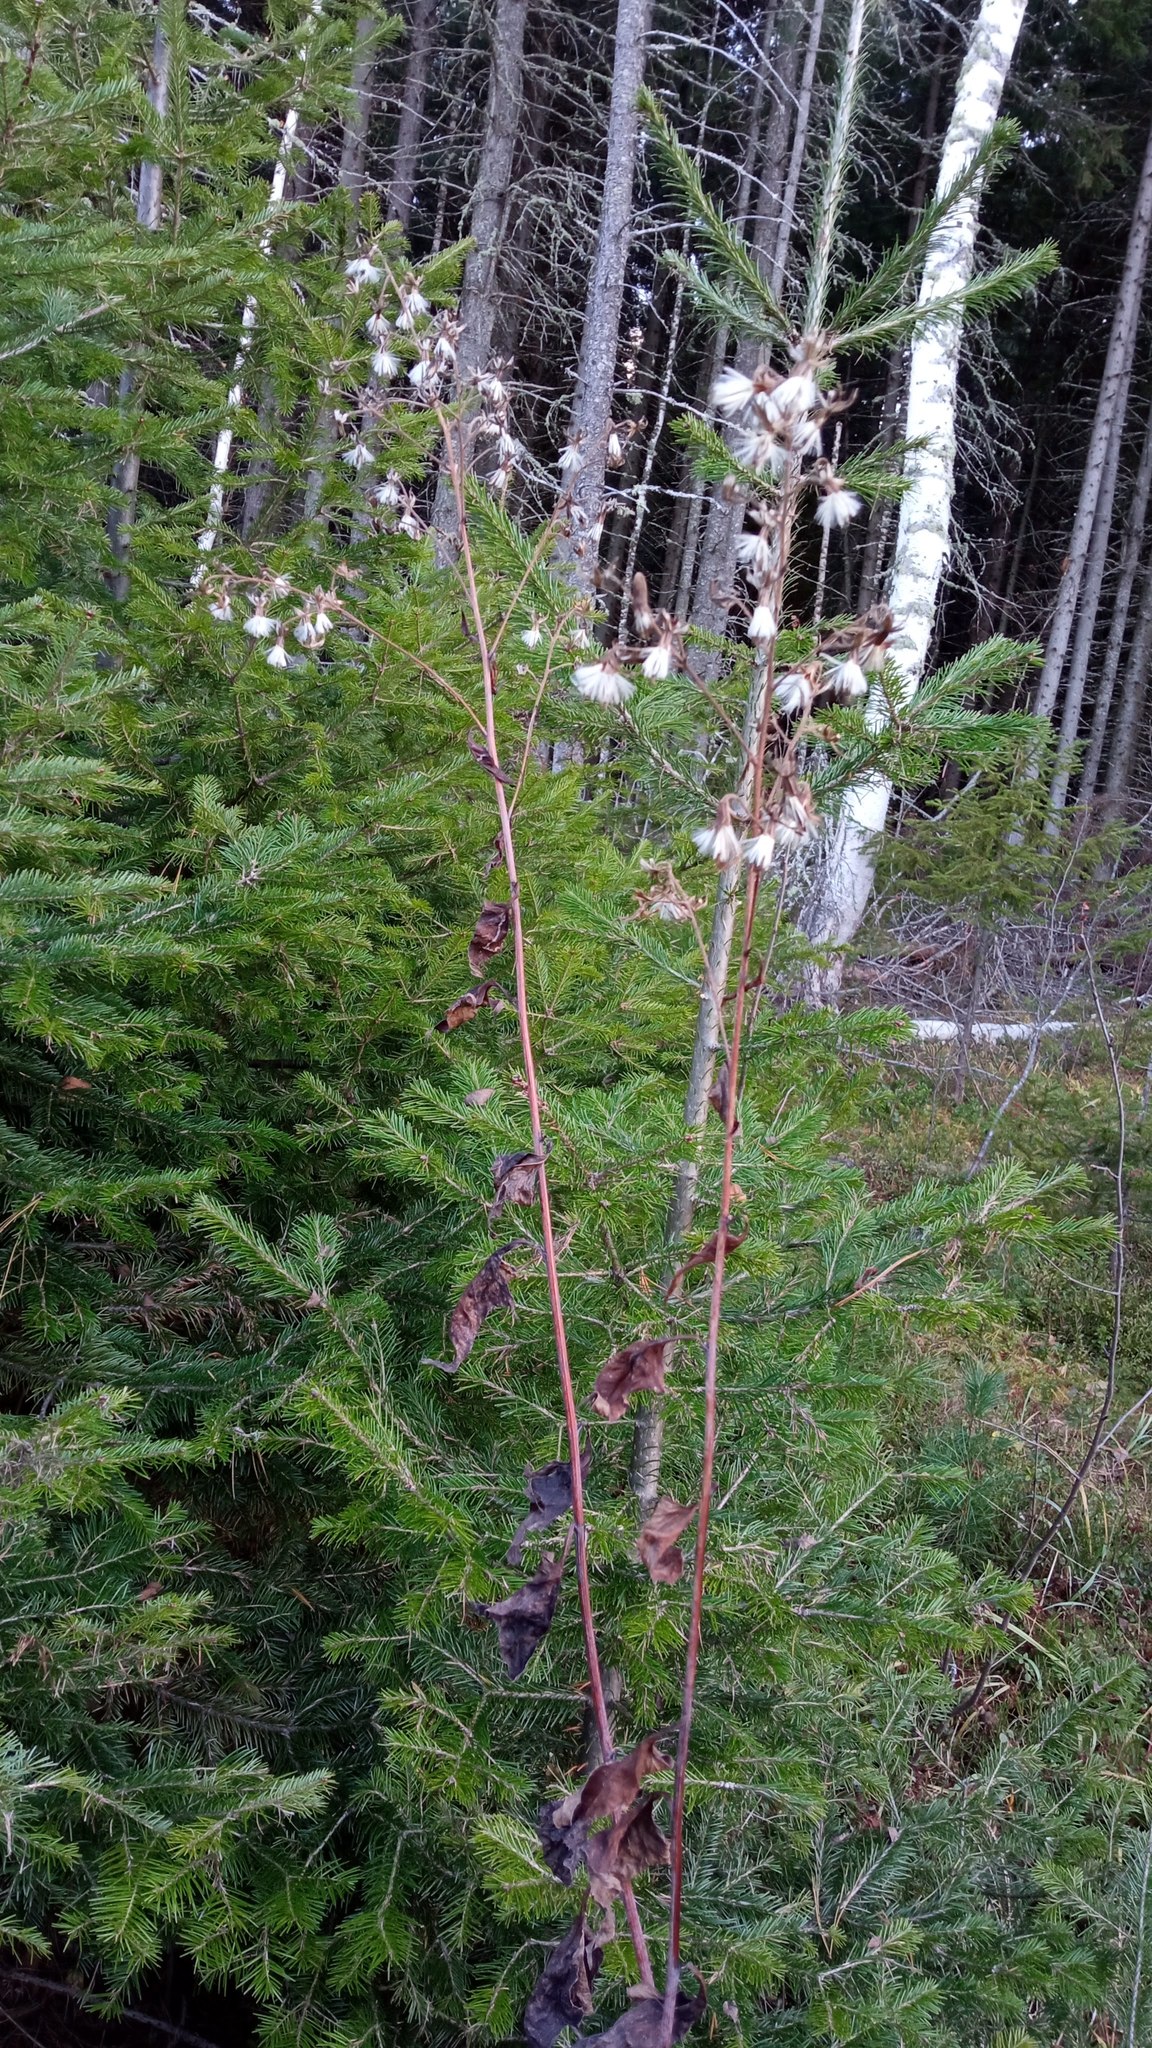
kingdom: Plantae
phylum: Tracheophyta
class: Magnoliopsida
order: Asterales
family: Asteraceae
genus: Parasenecio
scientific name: Parasenecio hastatus
